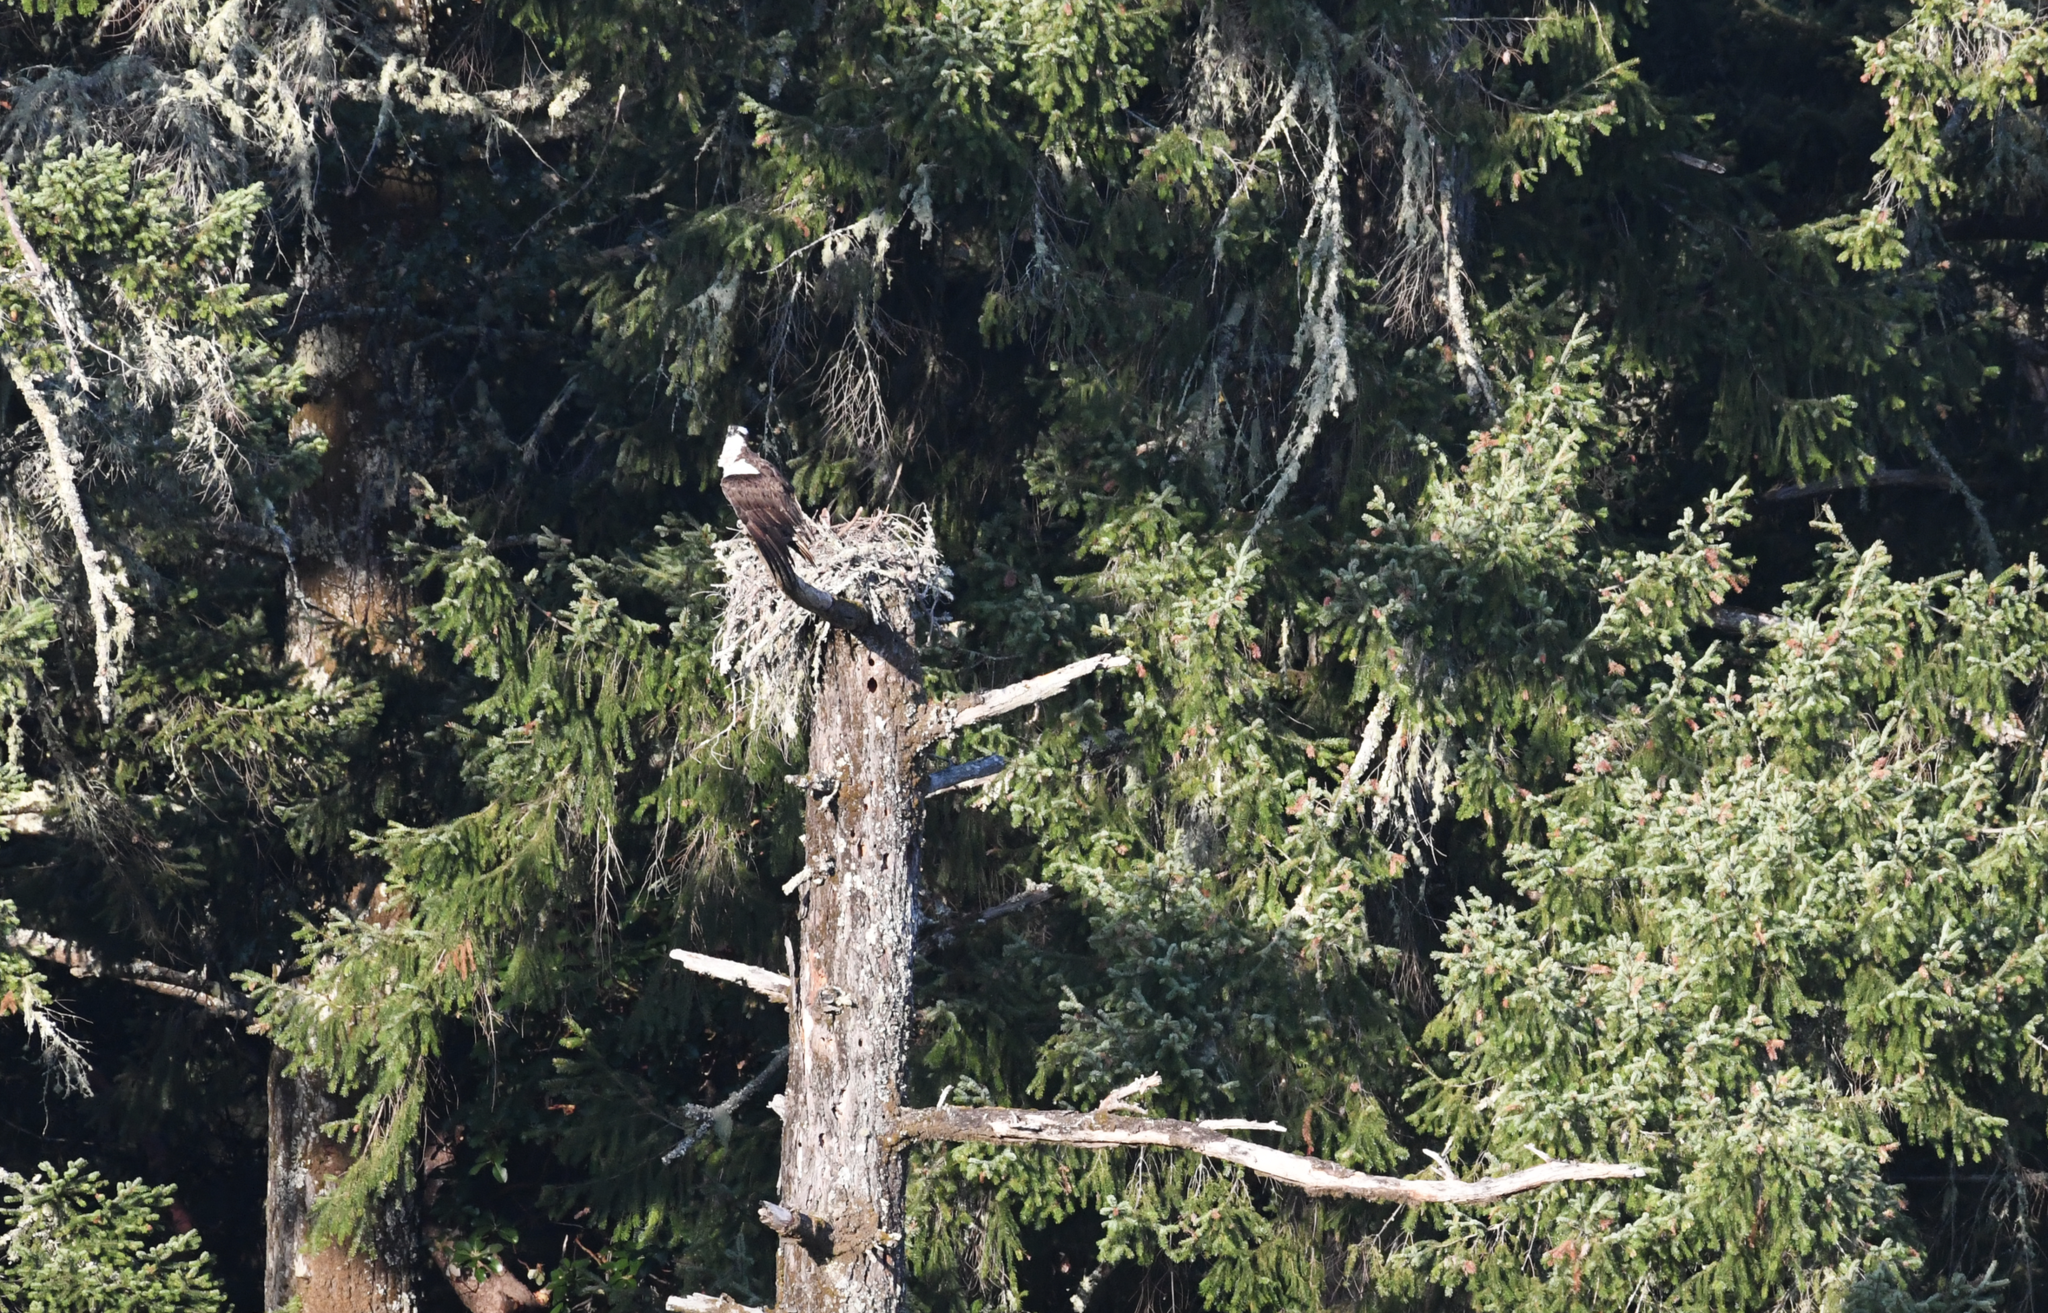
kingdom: Animalia
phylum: Chordata
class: Aves
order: Accipitriformes
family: Pandionidae
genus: Pandion
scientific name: Pandion haliaetus
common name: Osprey
